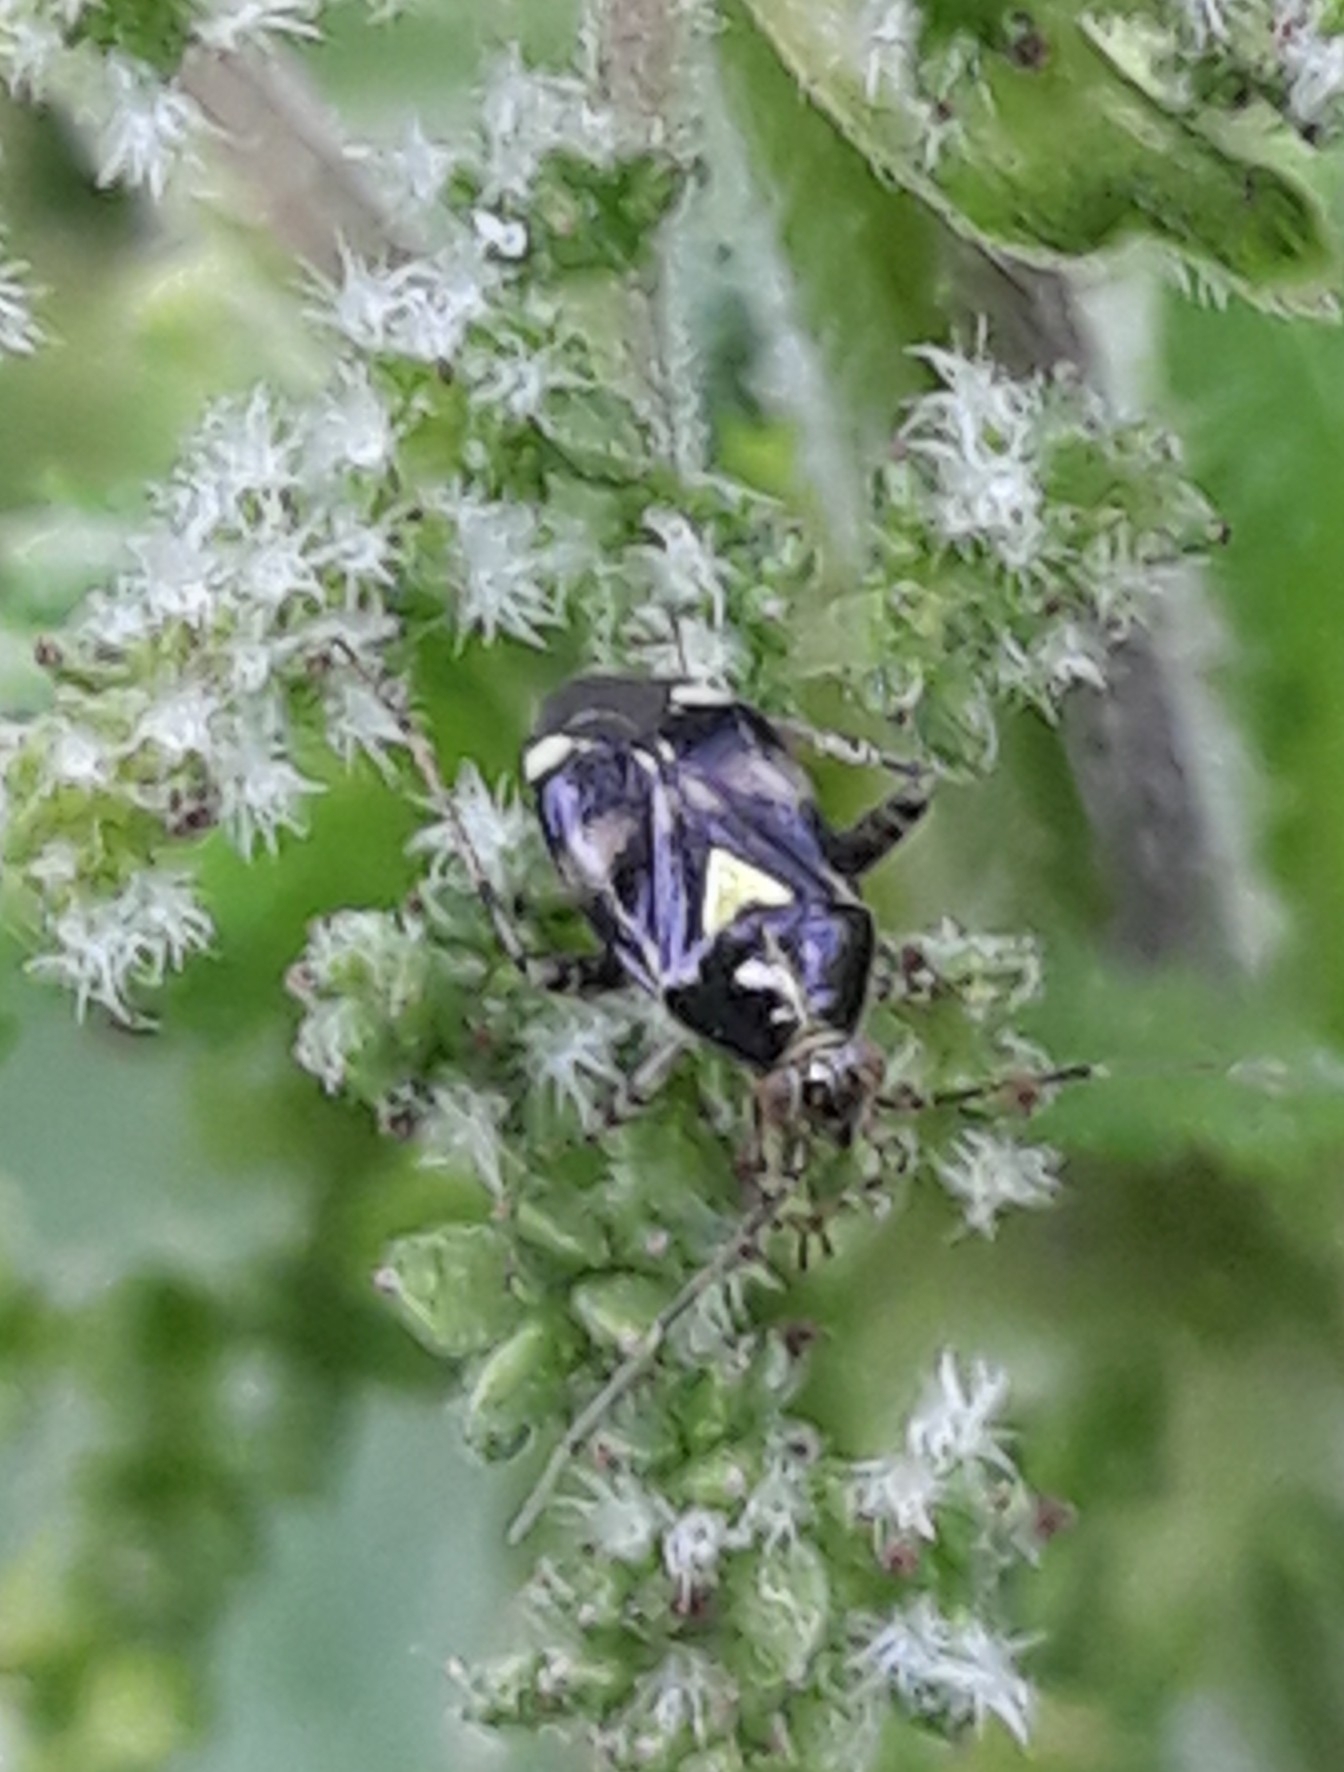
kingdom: Animalia
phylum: Arthropoda
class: Insecta
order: Hemiptera
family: Miridae
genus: Liocoris
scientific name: Liocoris tripustulatus
